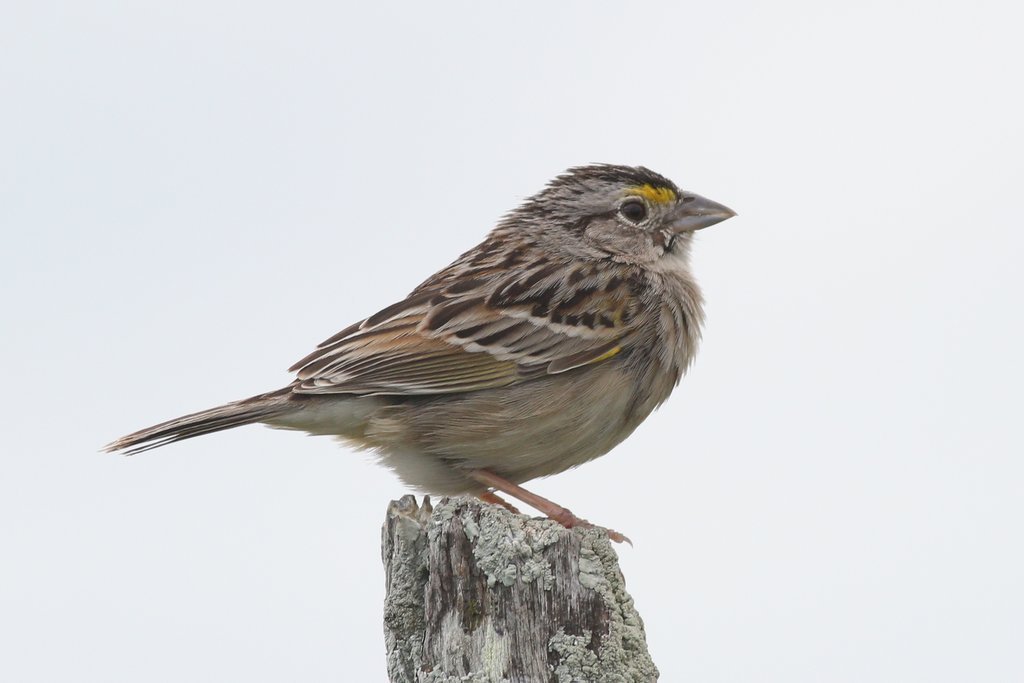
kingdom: Animalia
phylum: Chordata
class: Aves
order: Passeriformes
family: Passerellidae
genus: Ammodramus
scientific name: Ammodramus humeralis
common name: Grassland sparrow
